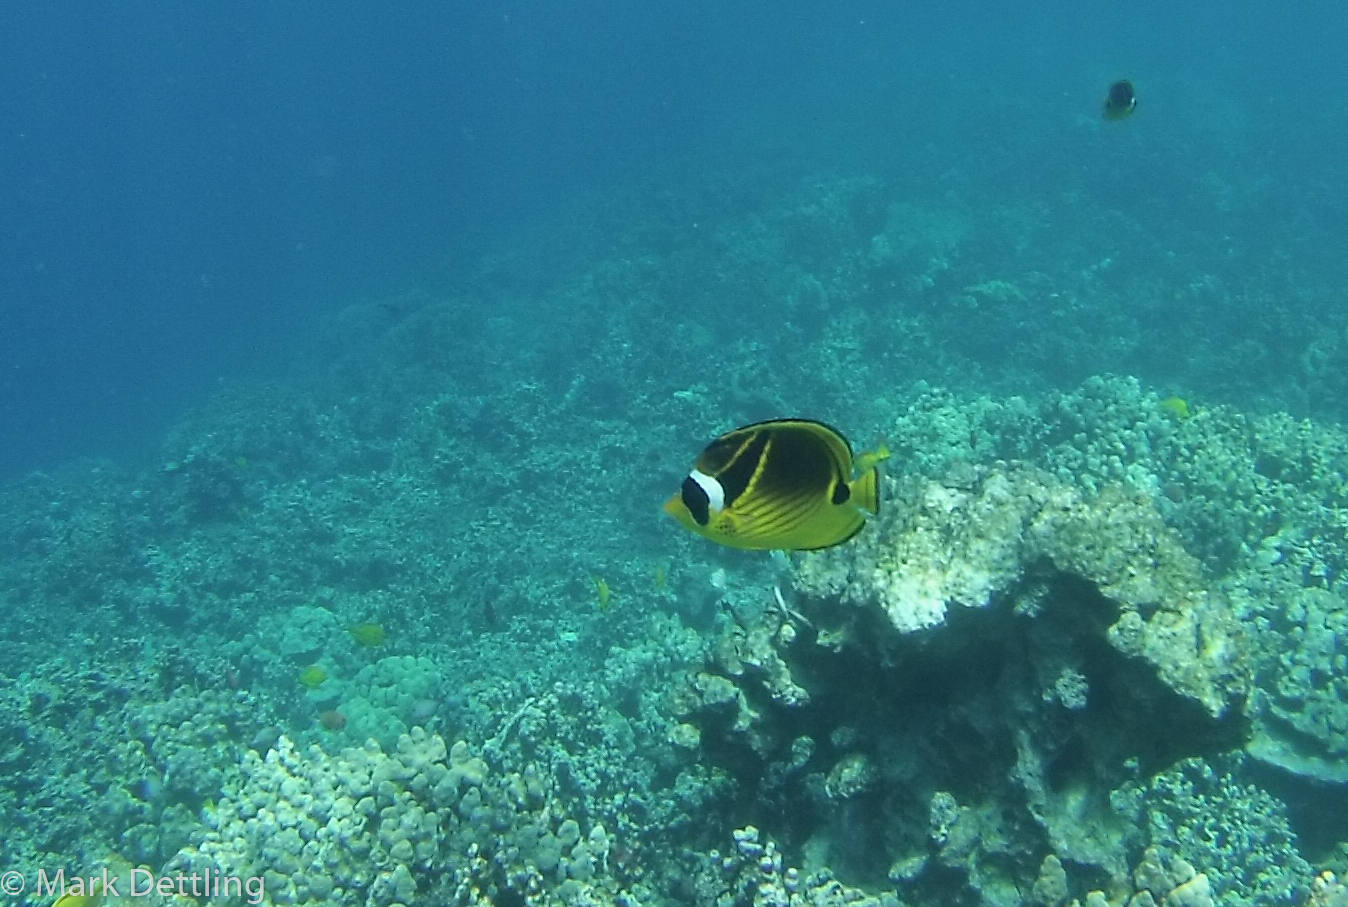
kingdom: Animalia
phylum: Chordata
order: Perciformes
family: Chaetodontidae
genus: Chaetodon
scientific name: Chaetodon lunula
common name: Raccoon butterflyfish
